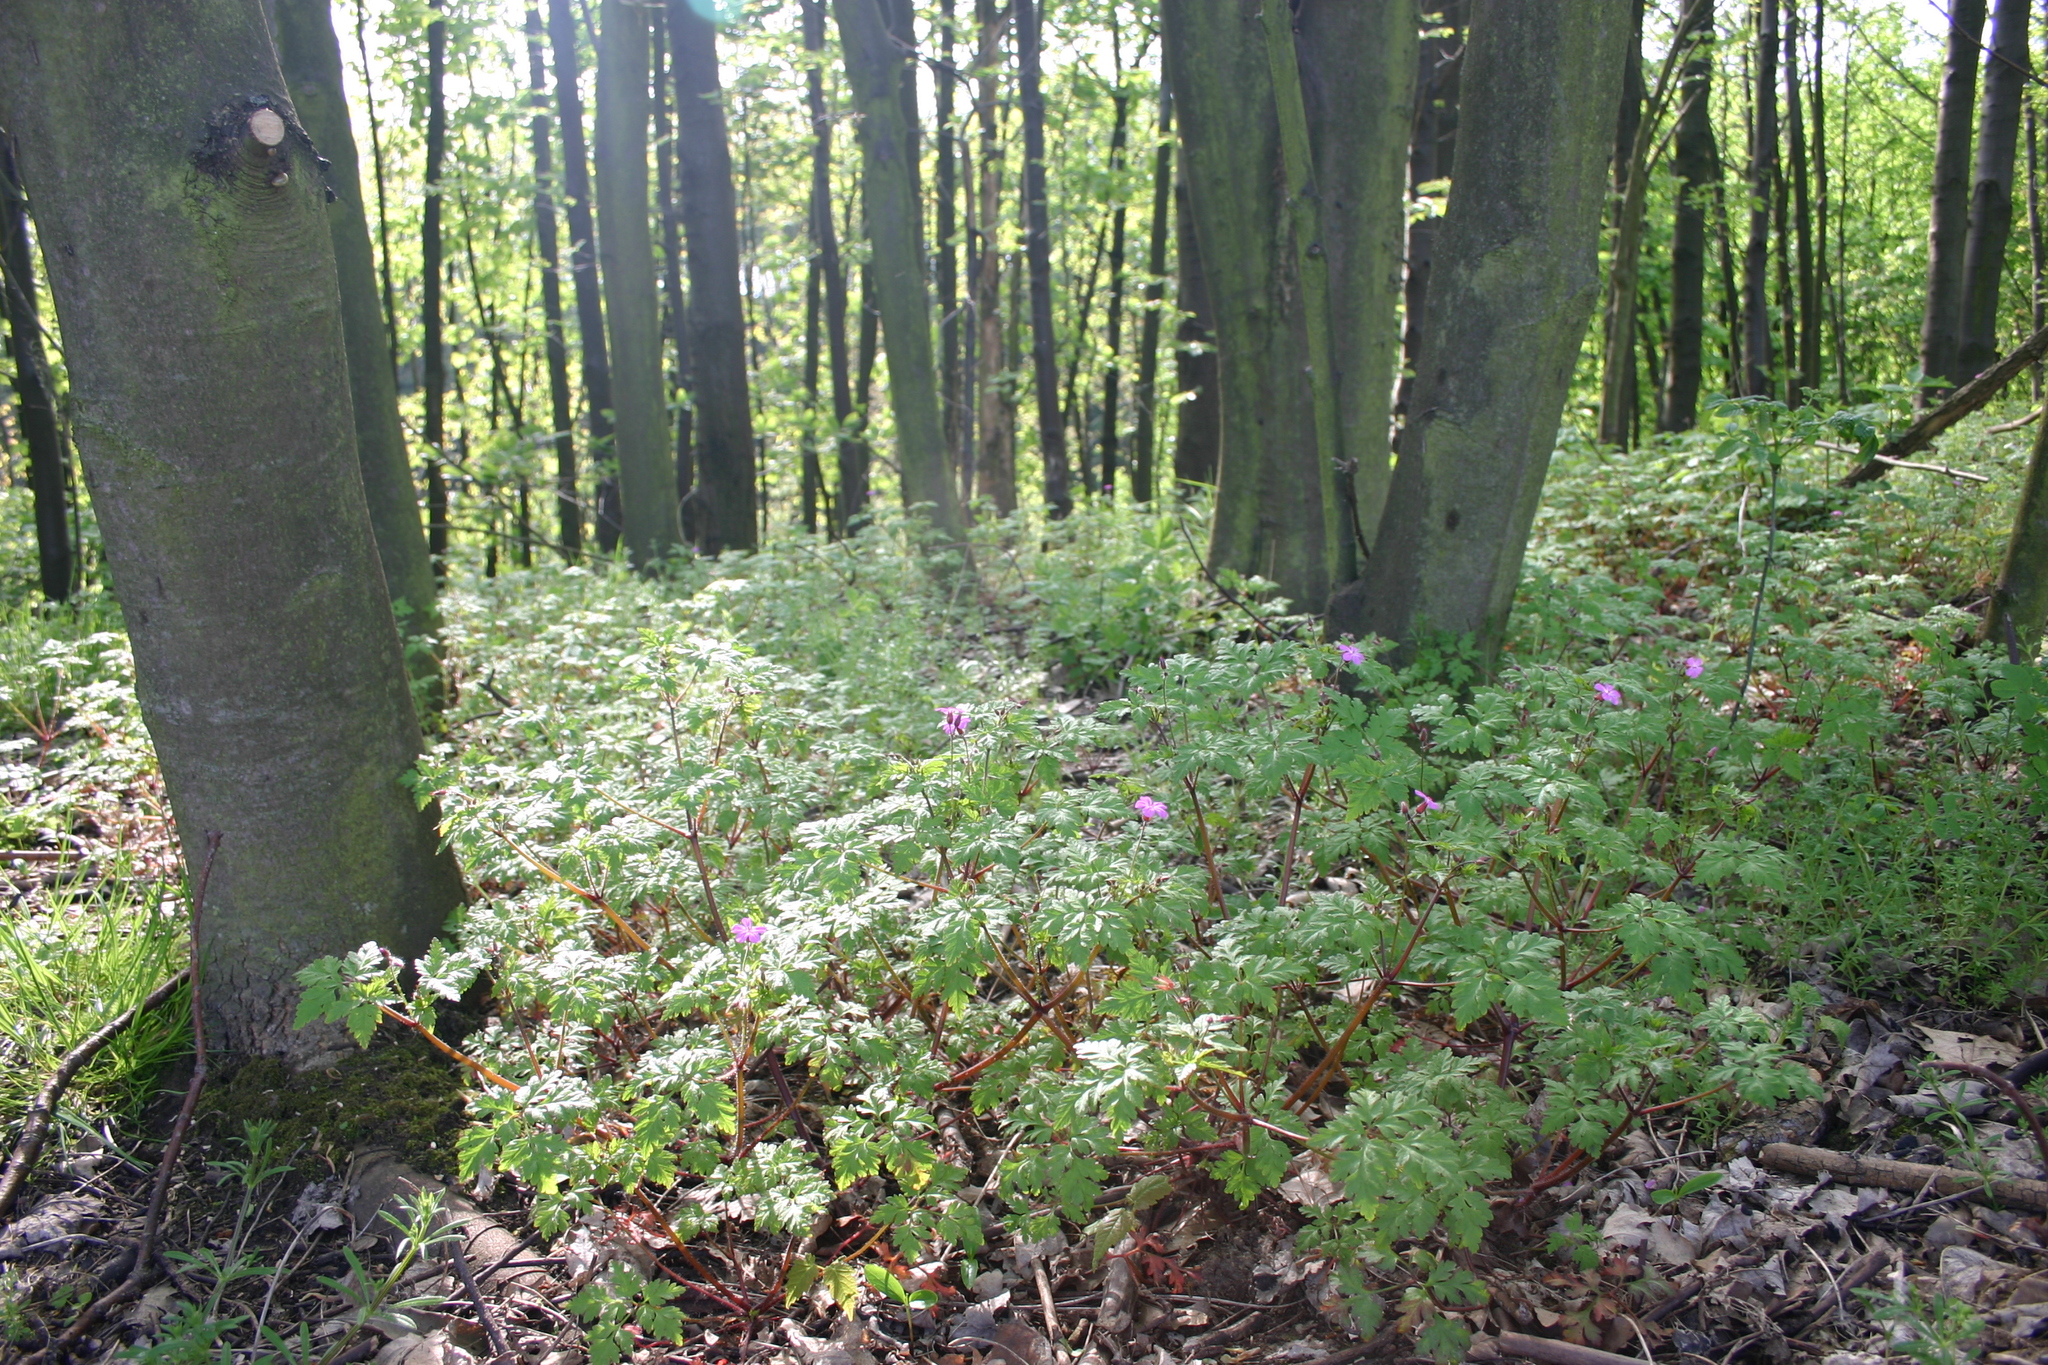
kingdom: Plantae
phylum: Tracheophyta
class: Magnoliopsida
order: Geraniales
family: Geraniaceae
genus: Geranium
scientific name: Geranium robertianum
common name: Herb-robert
